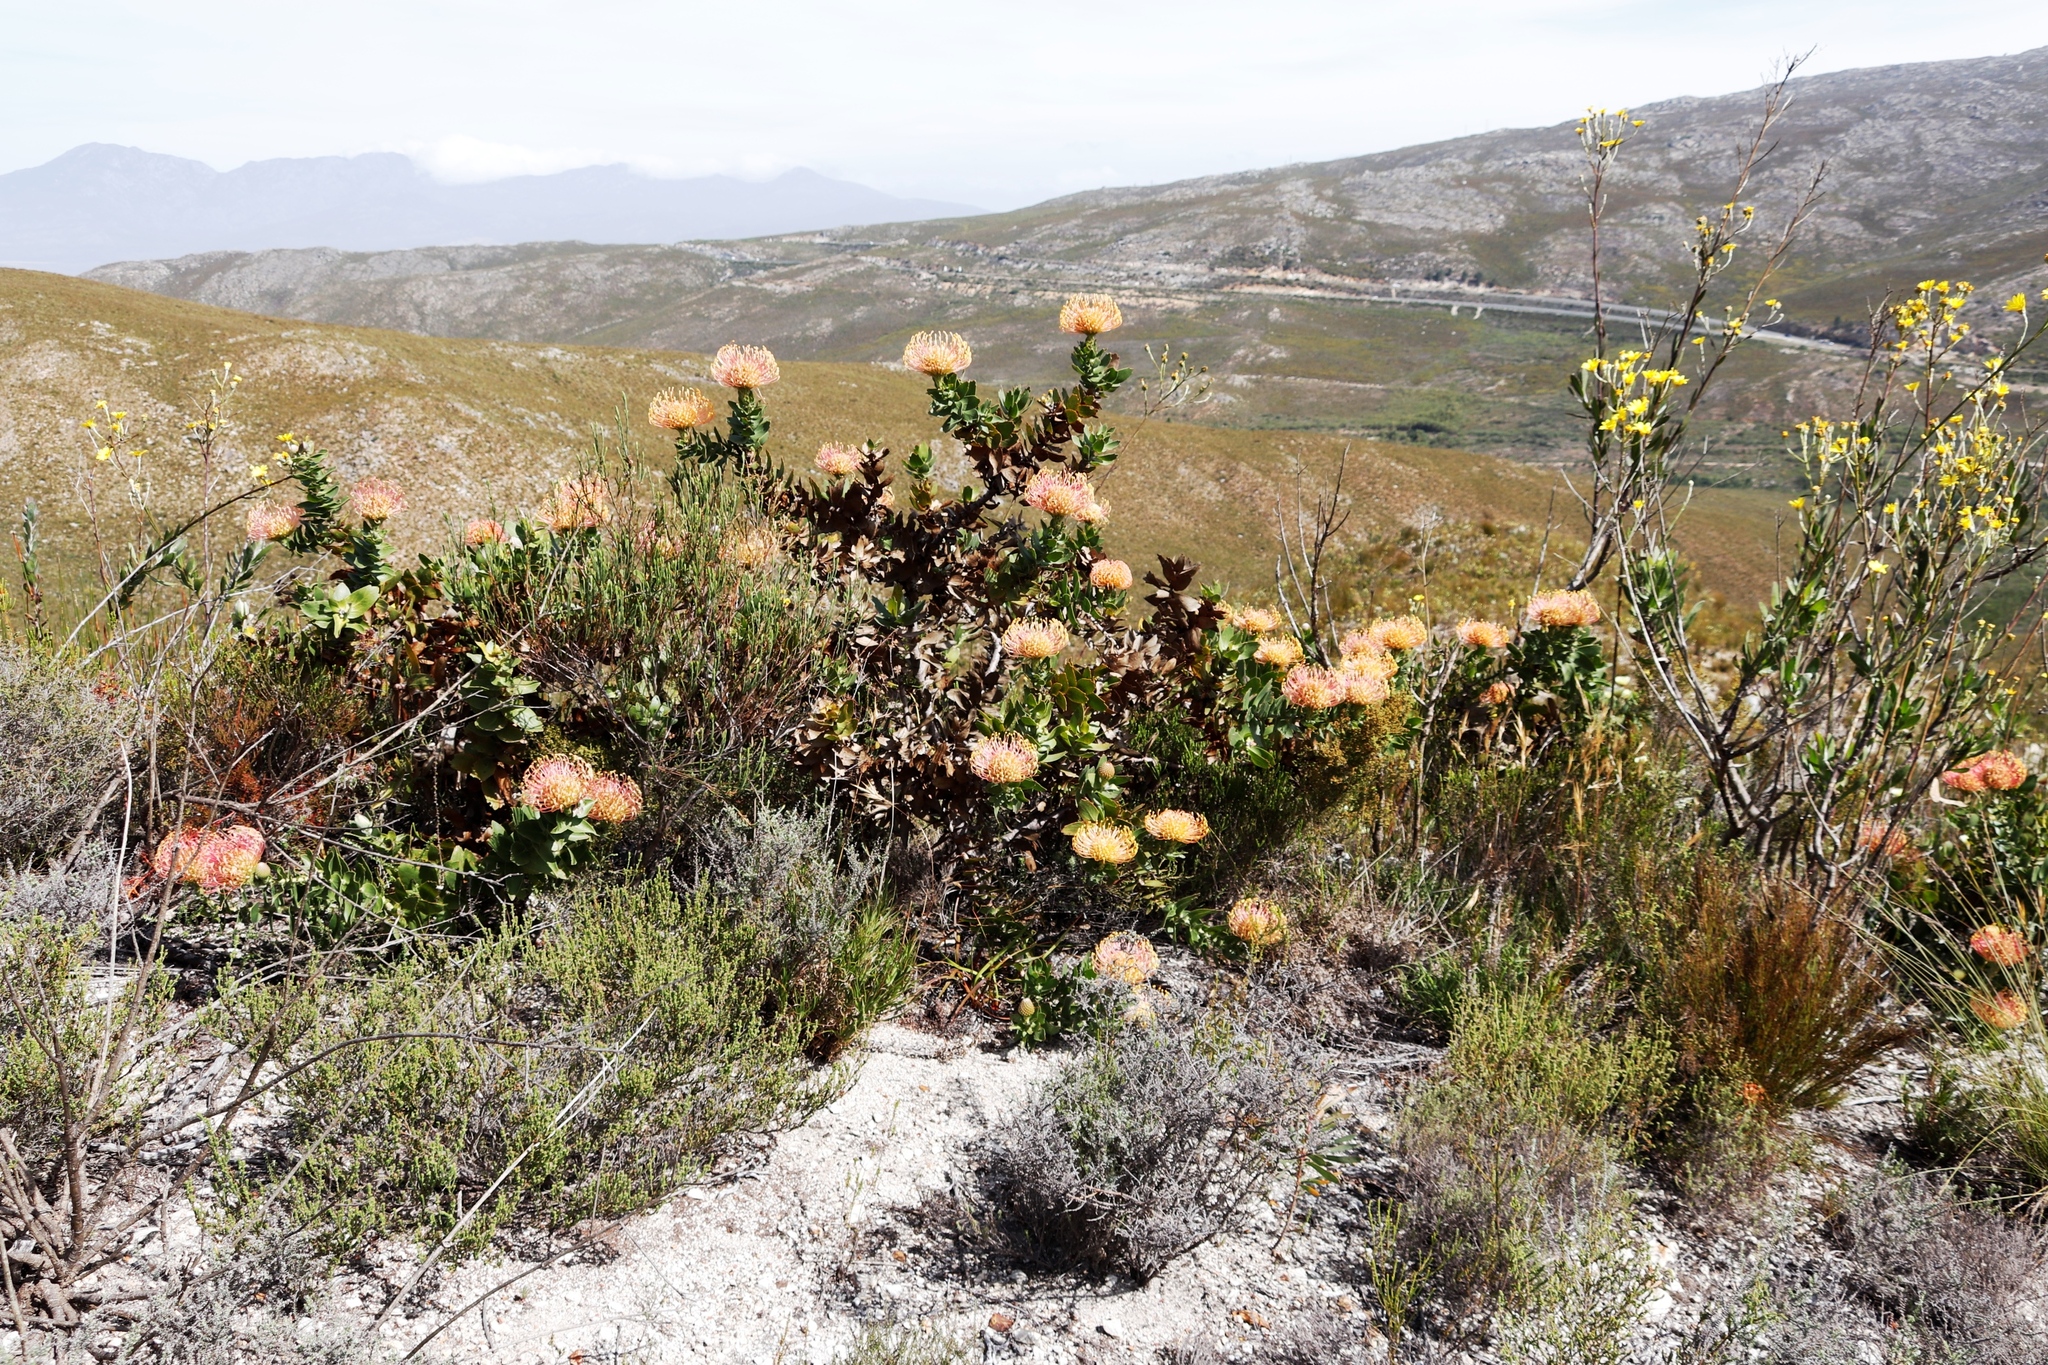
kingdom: Plantae
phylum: Tracheophyta
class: Magnoliopsida
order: Proteales
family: Proteaceae
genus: Leucospermum
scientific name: Leucospermum cordifolium
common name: Red pincushion-protea
